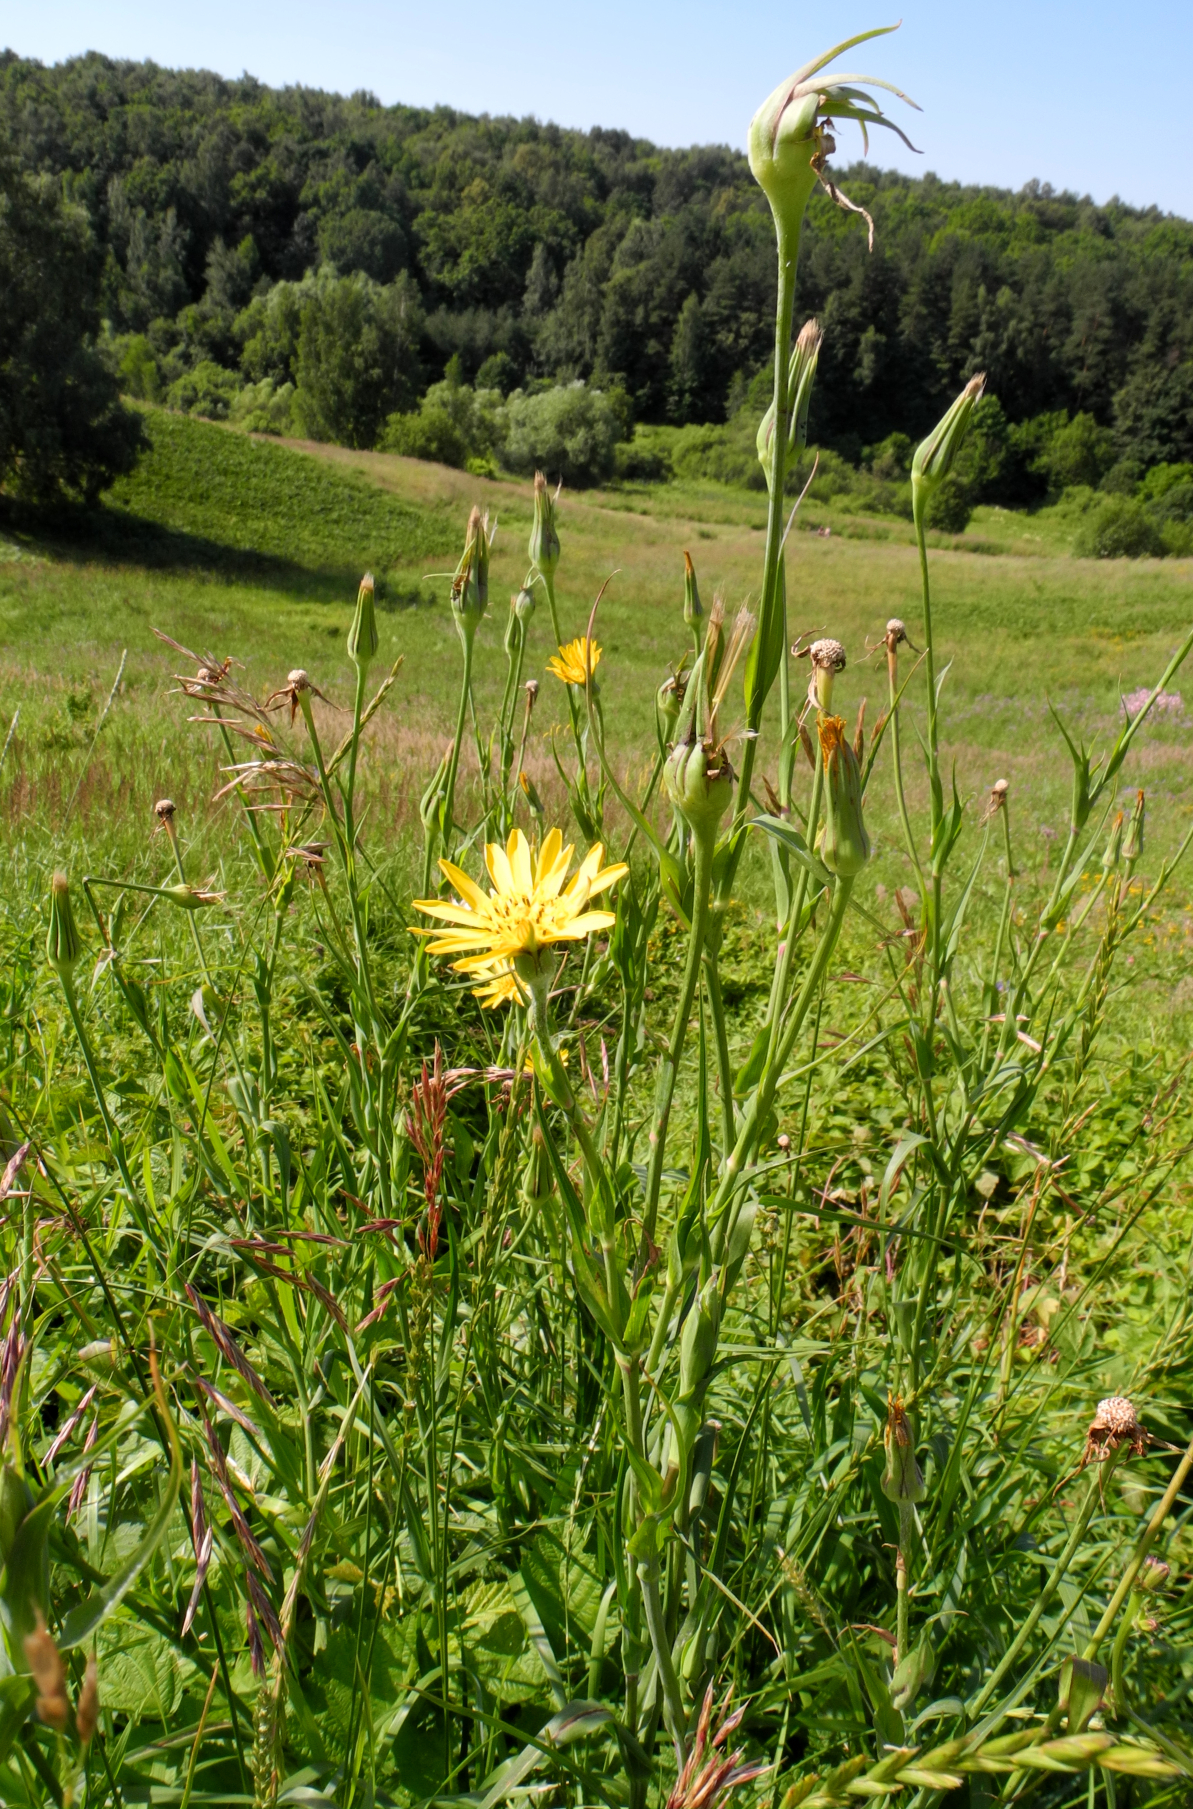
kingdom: Plantae
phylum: Tracheophyta
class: Magnoliopsida
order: Asterales
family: Asteraceae
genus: Tragopogon
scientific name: Tragopogon pratensis
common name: Goat's-beard
